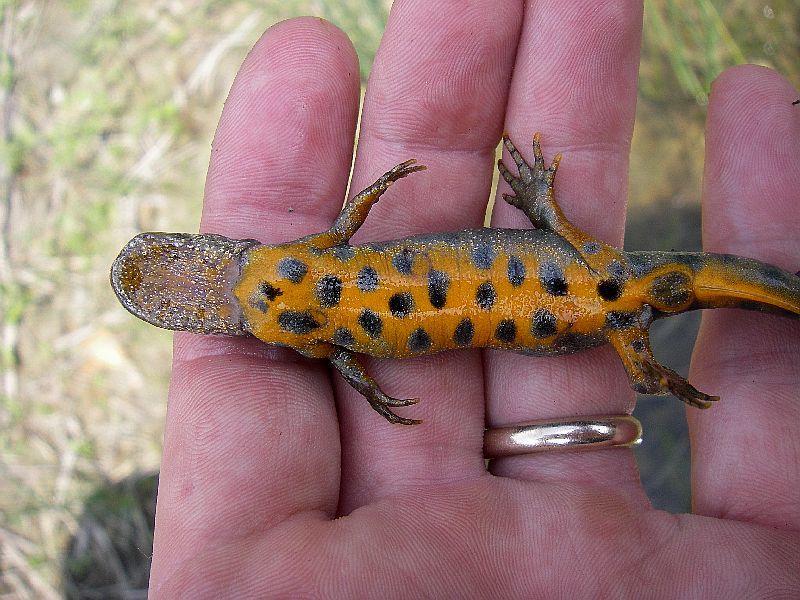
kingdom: Animalia
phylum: Chordata
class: Amphibia
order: Caudata
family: Salamandridae
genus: Triturus
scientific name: Triturus carnifex
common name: Italian crested newt
